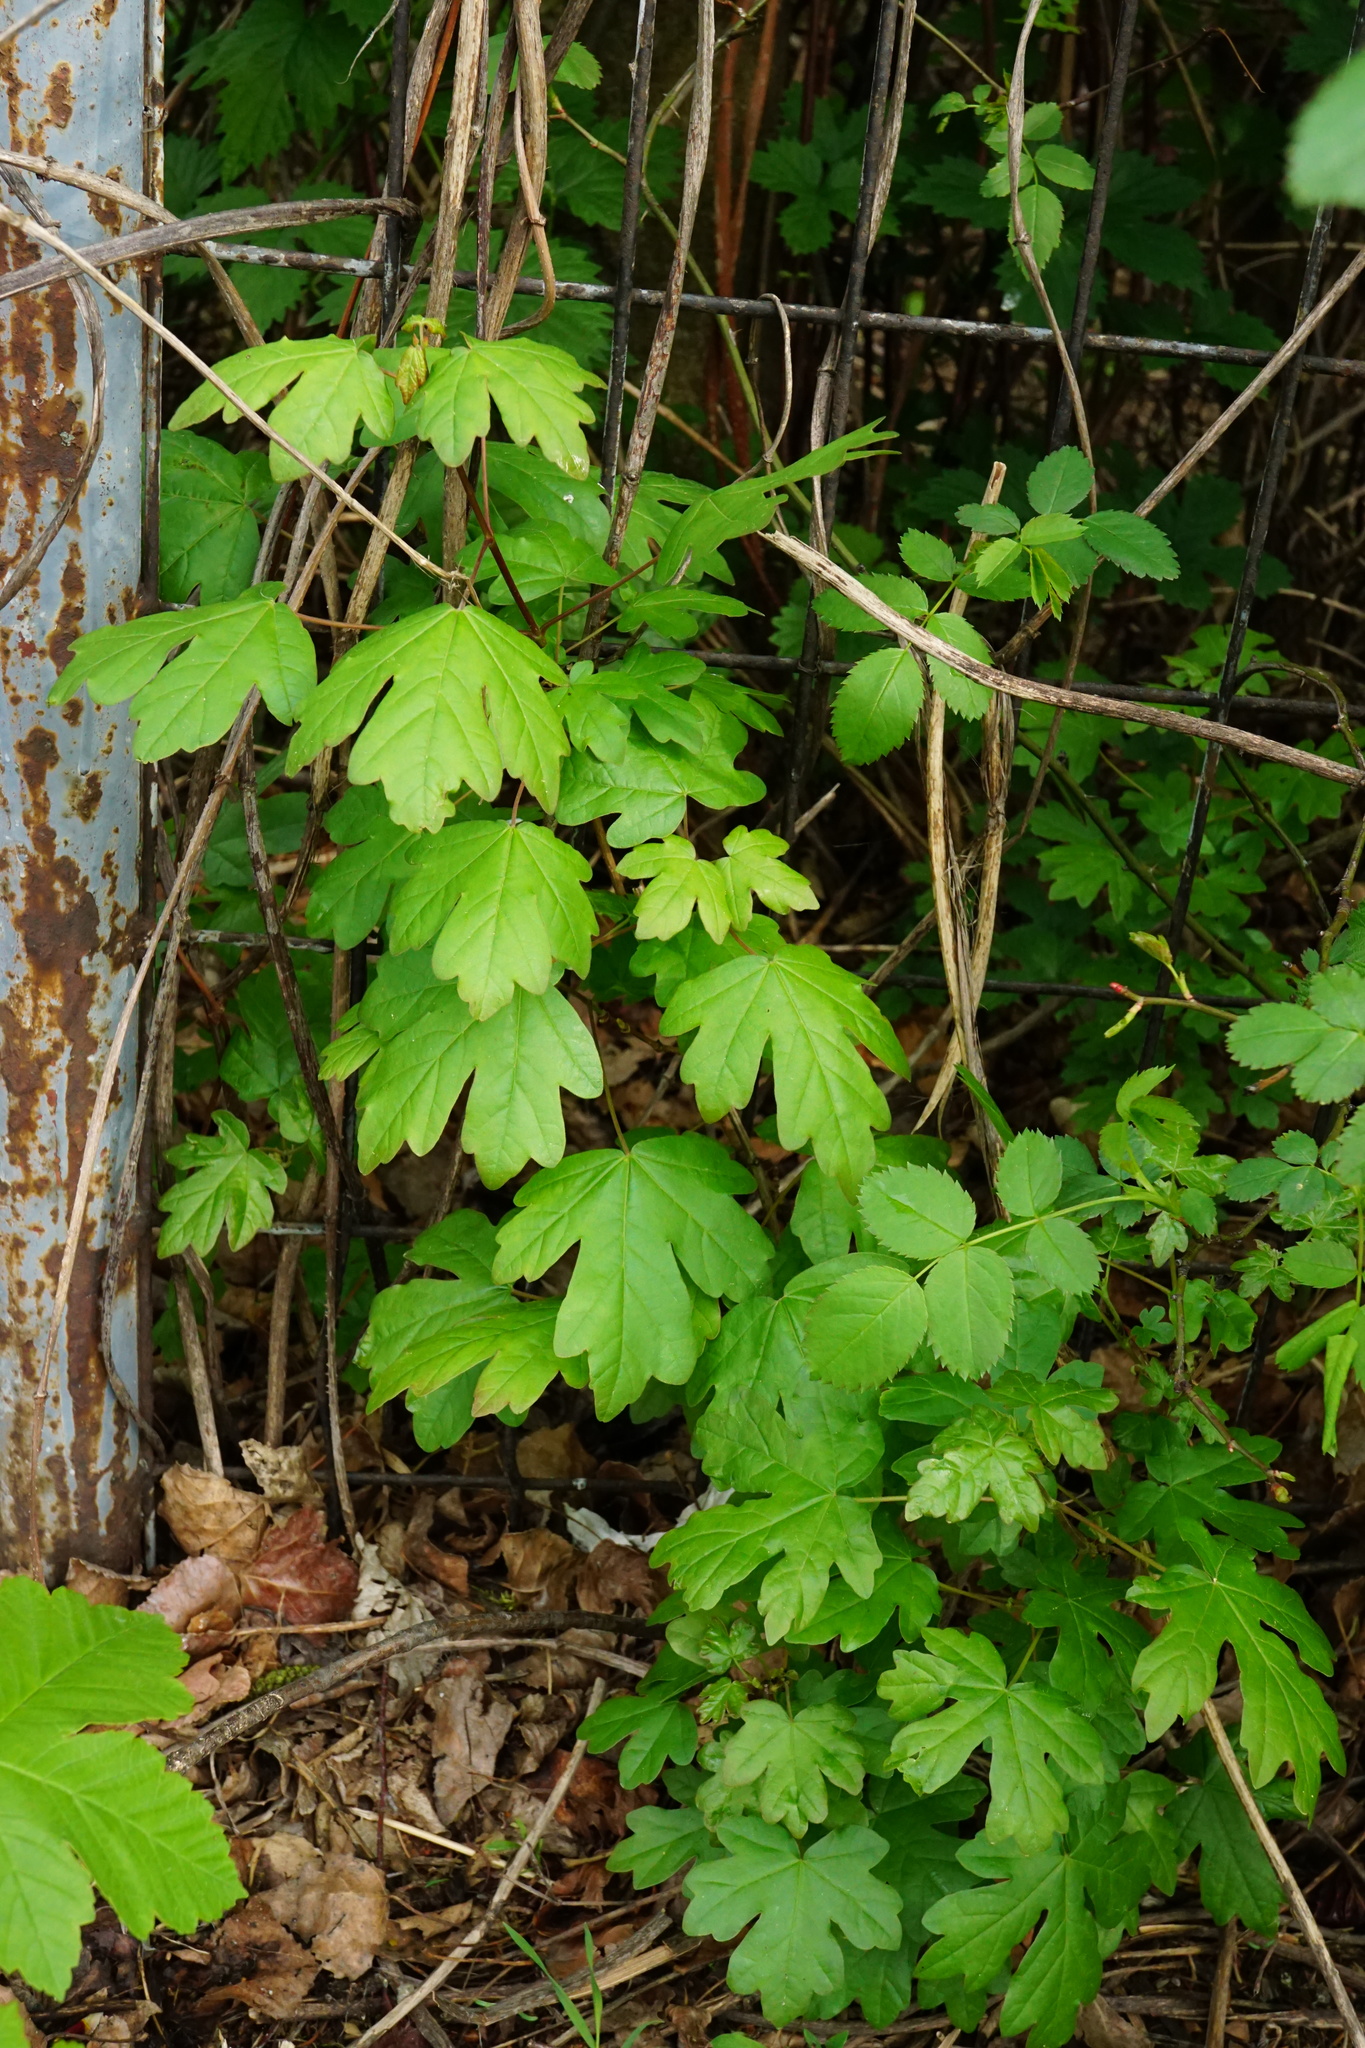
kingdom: Plantae
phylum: Tracheophyta
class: Magnoliopsida
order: Sapindales
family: Sapindaceae
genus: Acer
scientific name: Acer campestre
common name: Field maple
